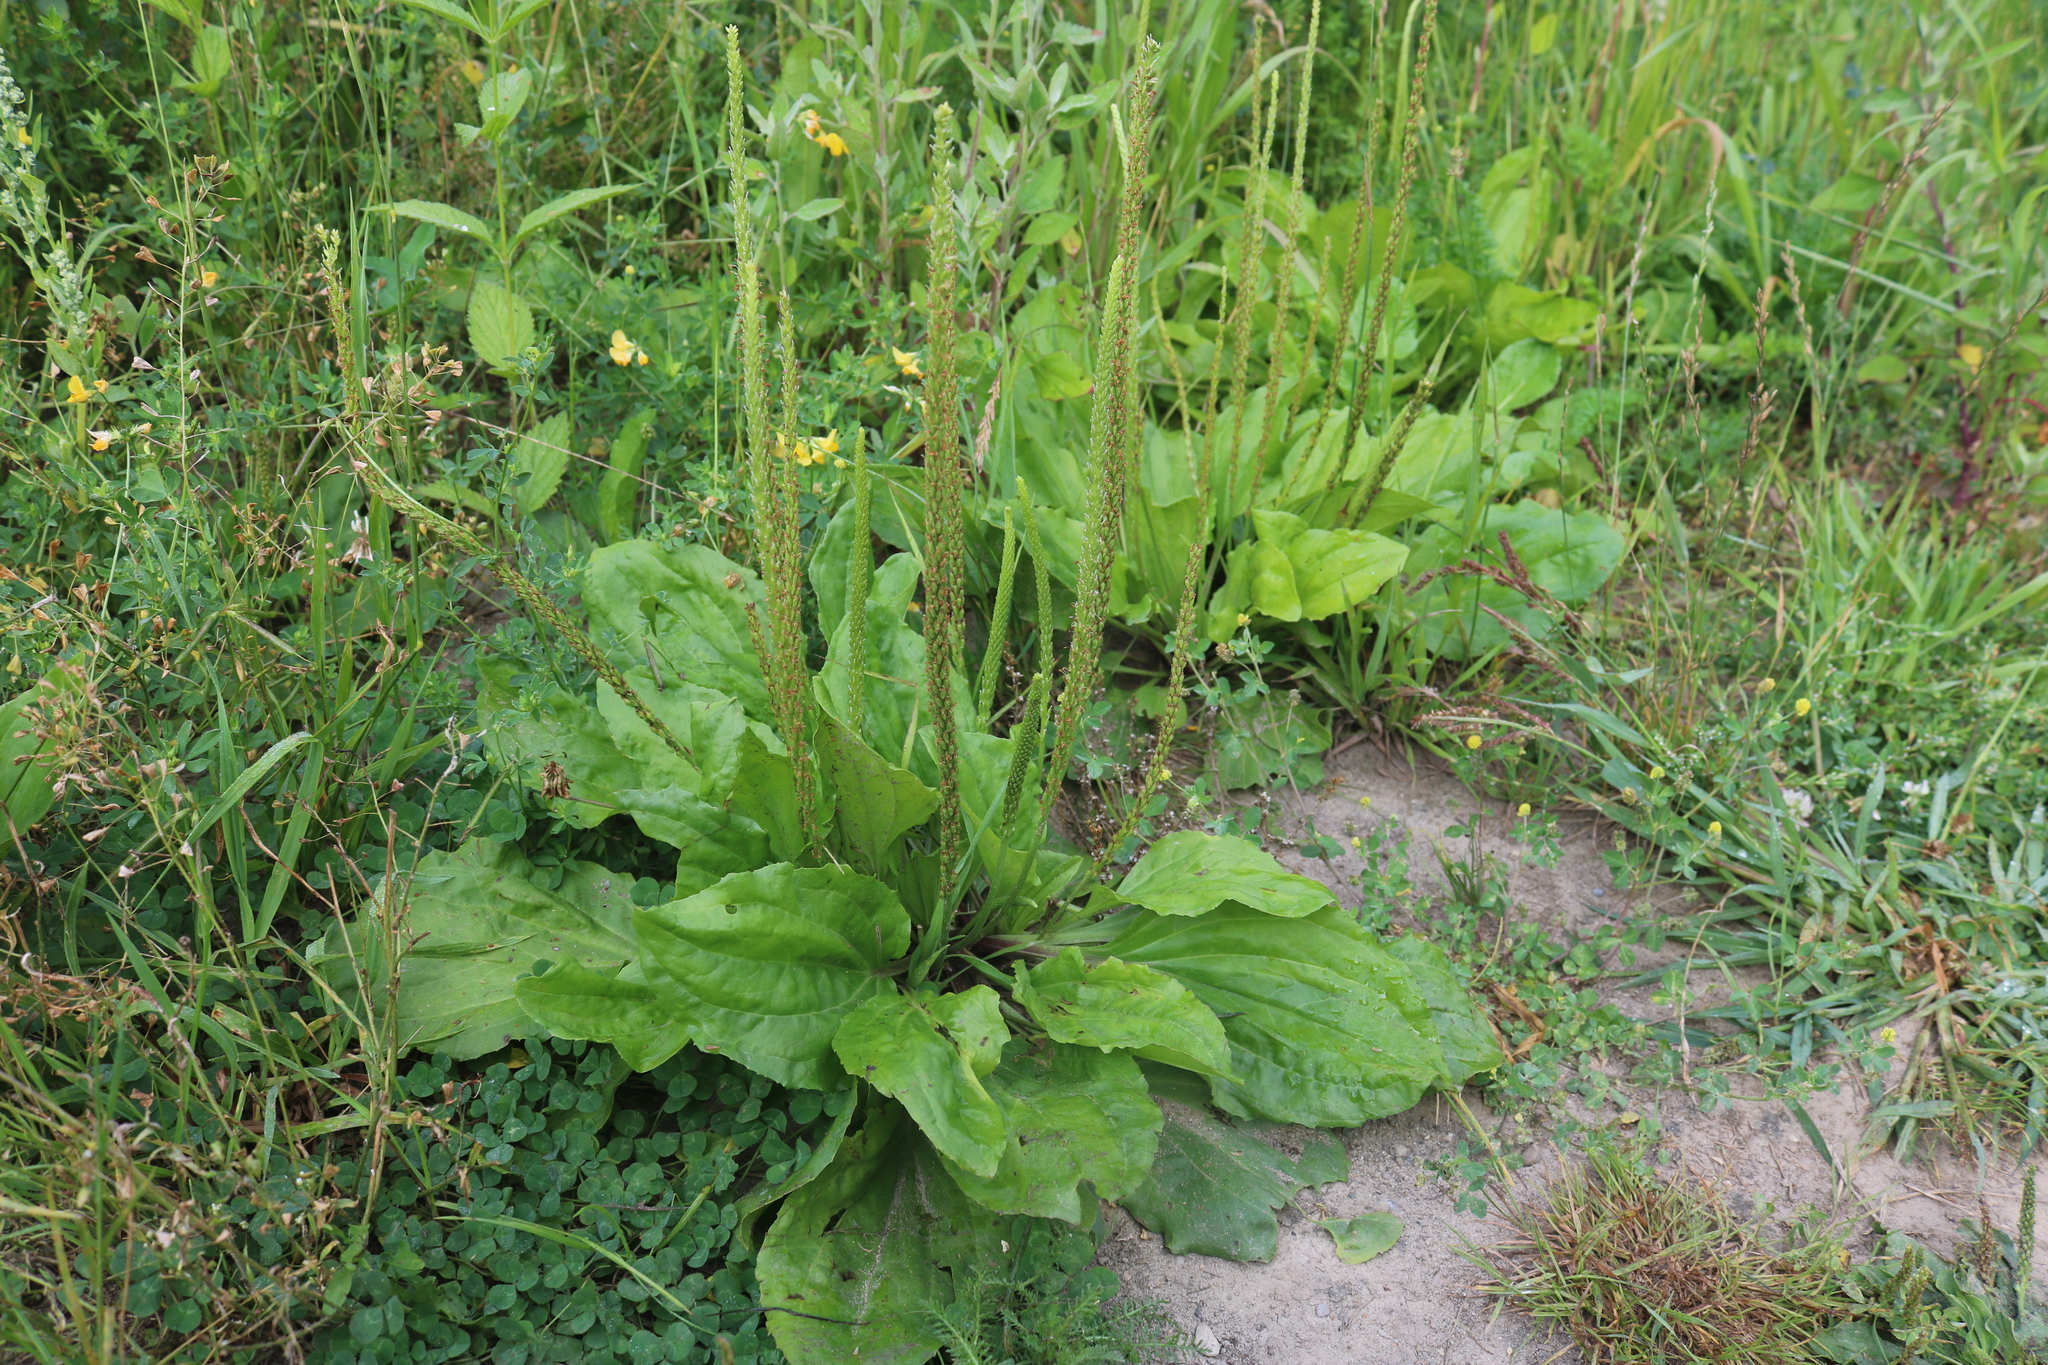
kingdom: Plantae
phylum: Tracheophyta
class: Magnoliopsida
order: Lamiales
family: Plantaginaceae
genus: Plantago
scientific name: Plantago rugelii
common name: American plantain
